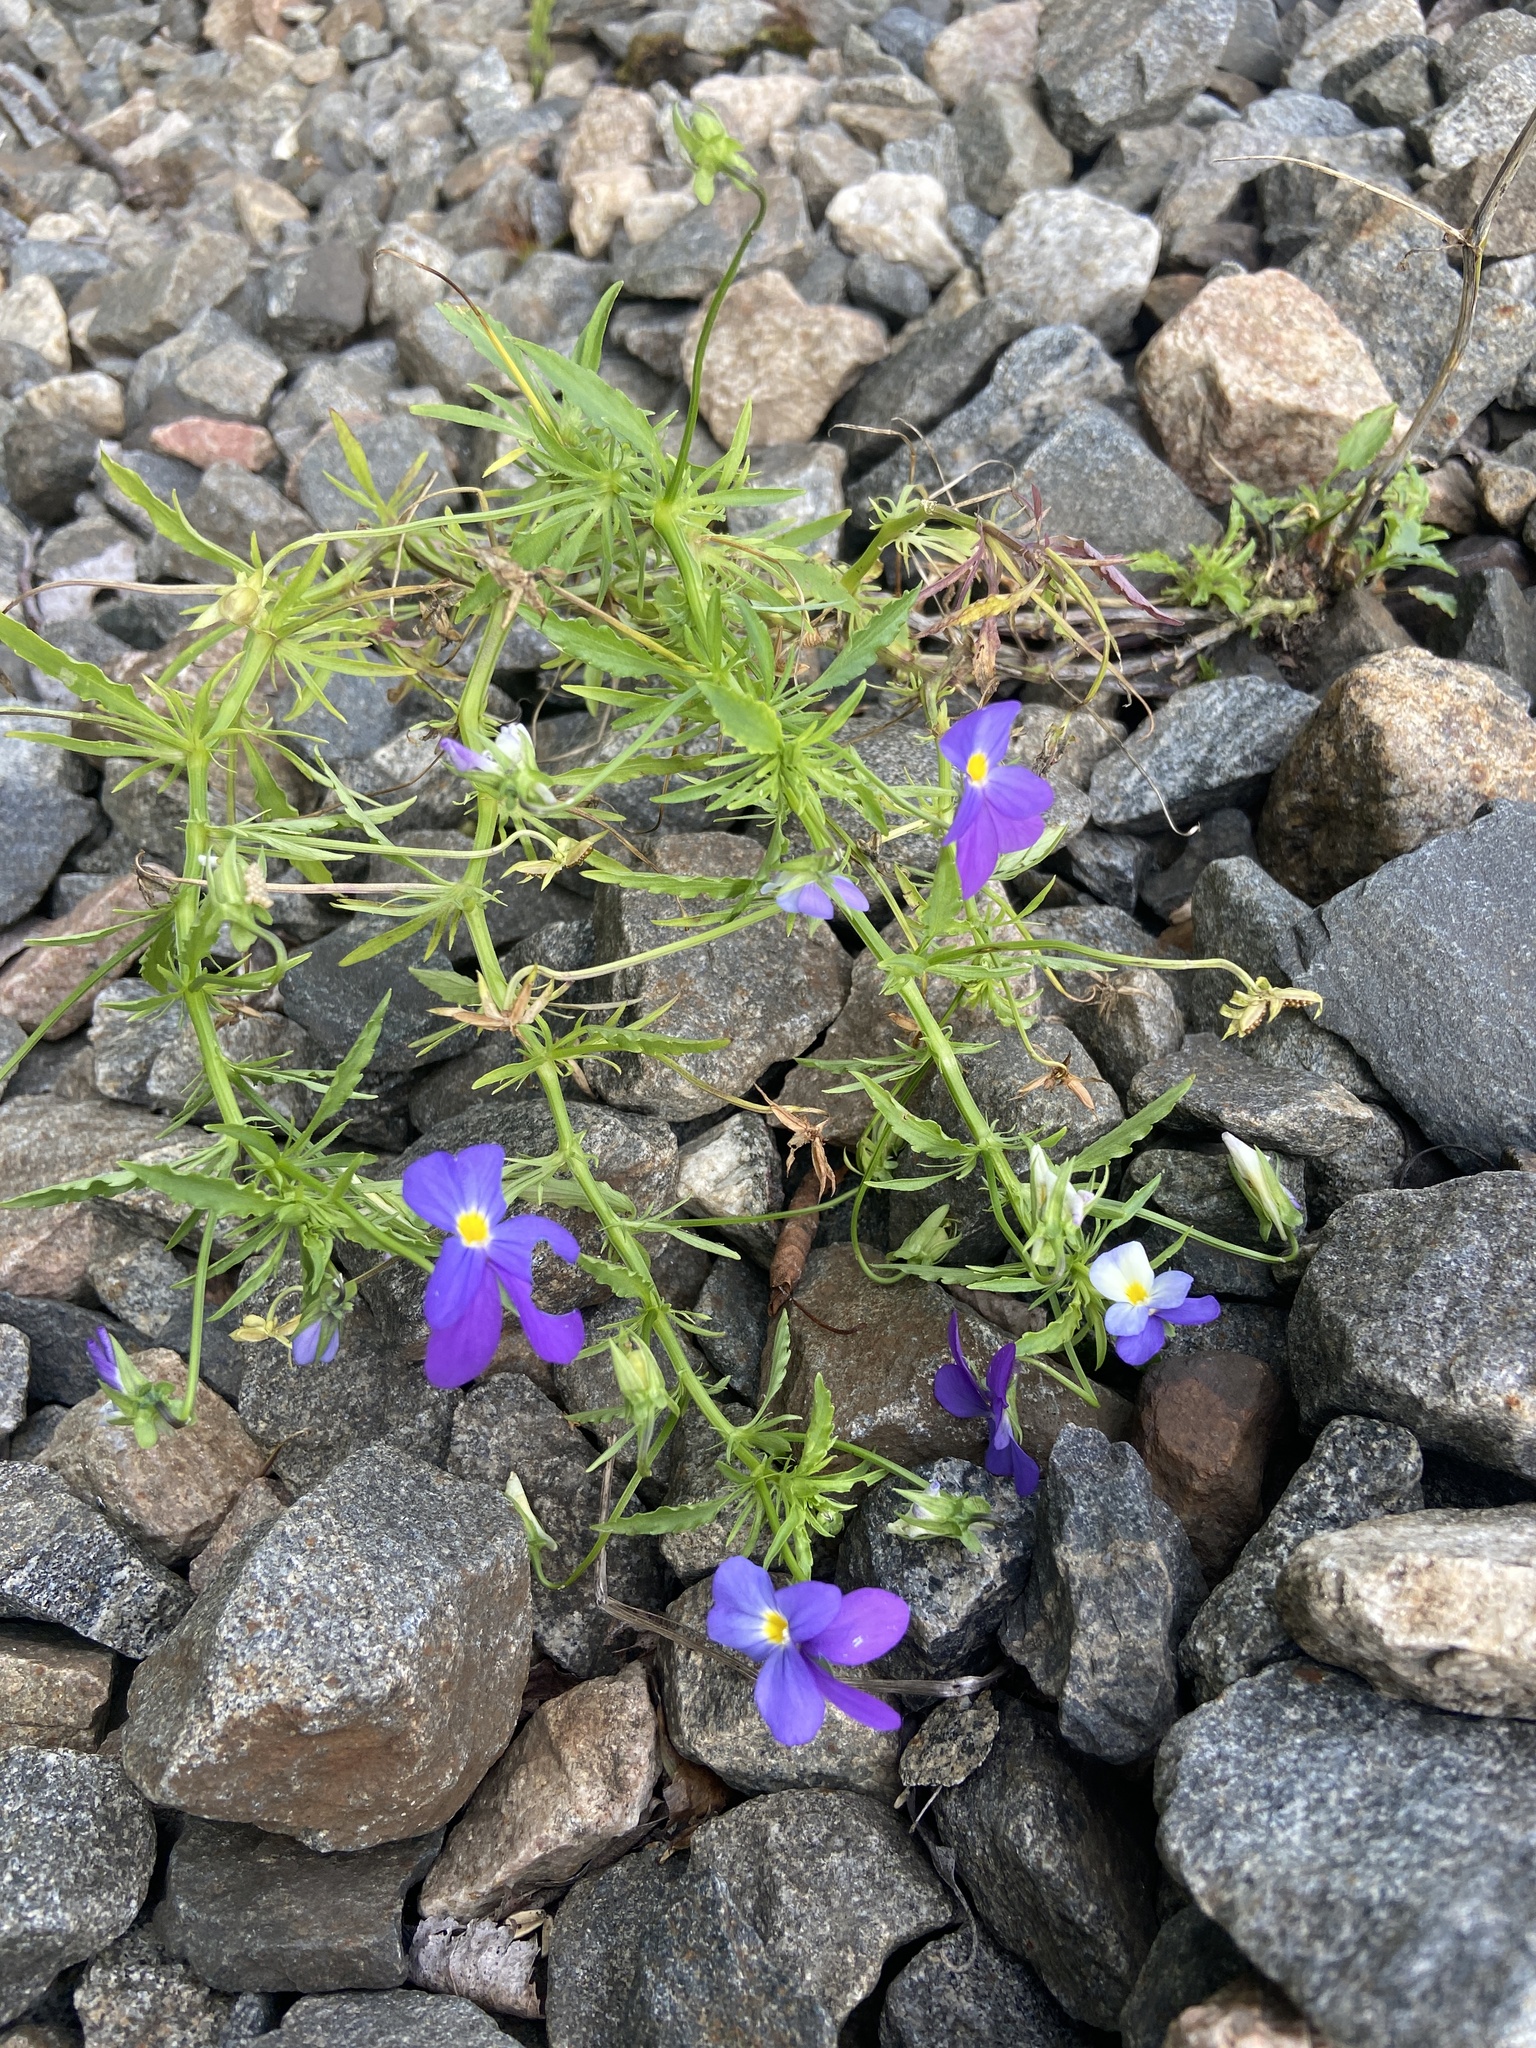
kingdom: Plantae
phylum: Tracheophyta
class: Magnoliopsida
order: Malpighiales
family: Violaceae
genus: Viola
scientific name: Viola tricolor
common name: Pansy
